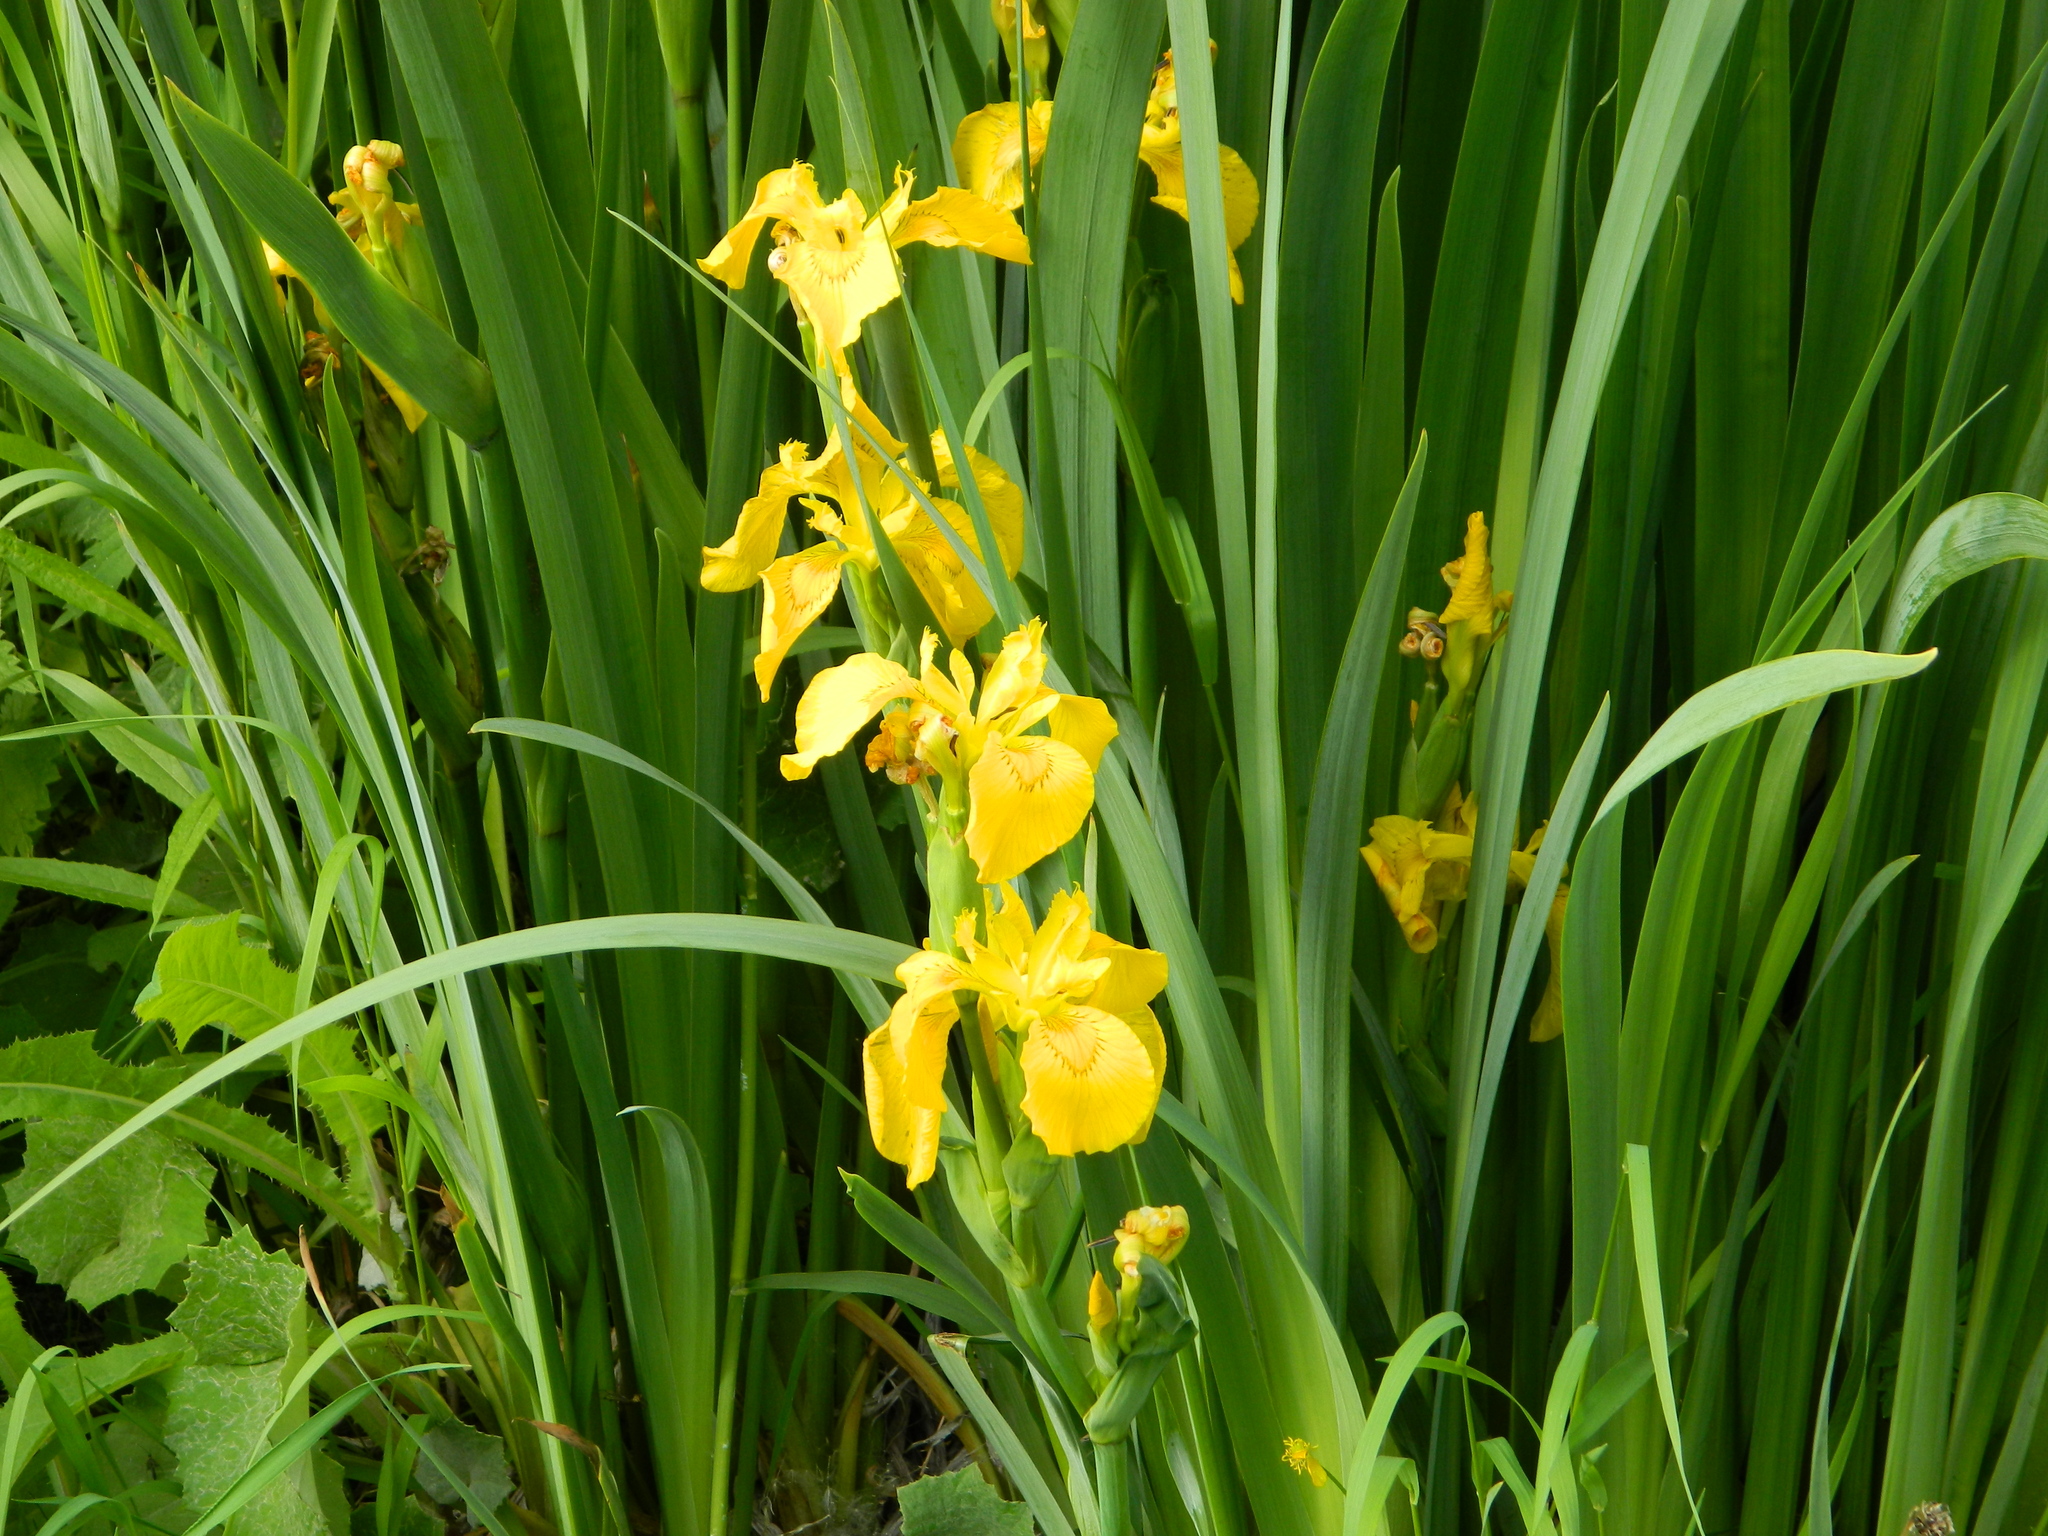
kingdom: Plantae
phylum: Tracheophyta
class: Liliopsida
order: Asparagales
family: Iridaceae
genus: Iris
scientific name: Iris pseudacorus
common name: Yellow flag
